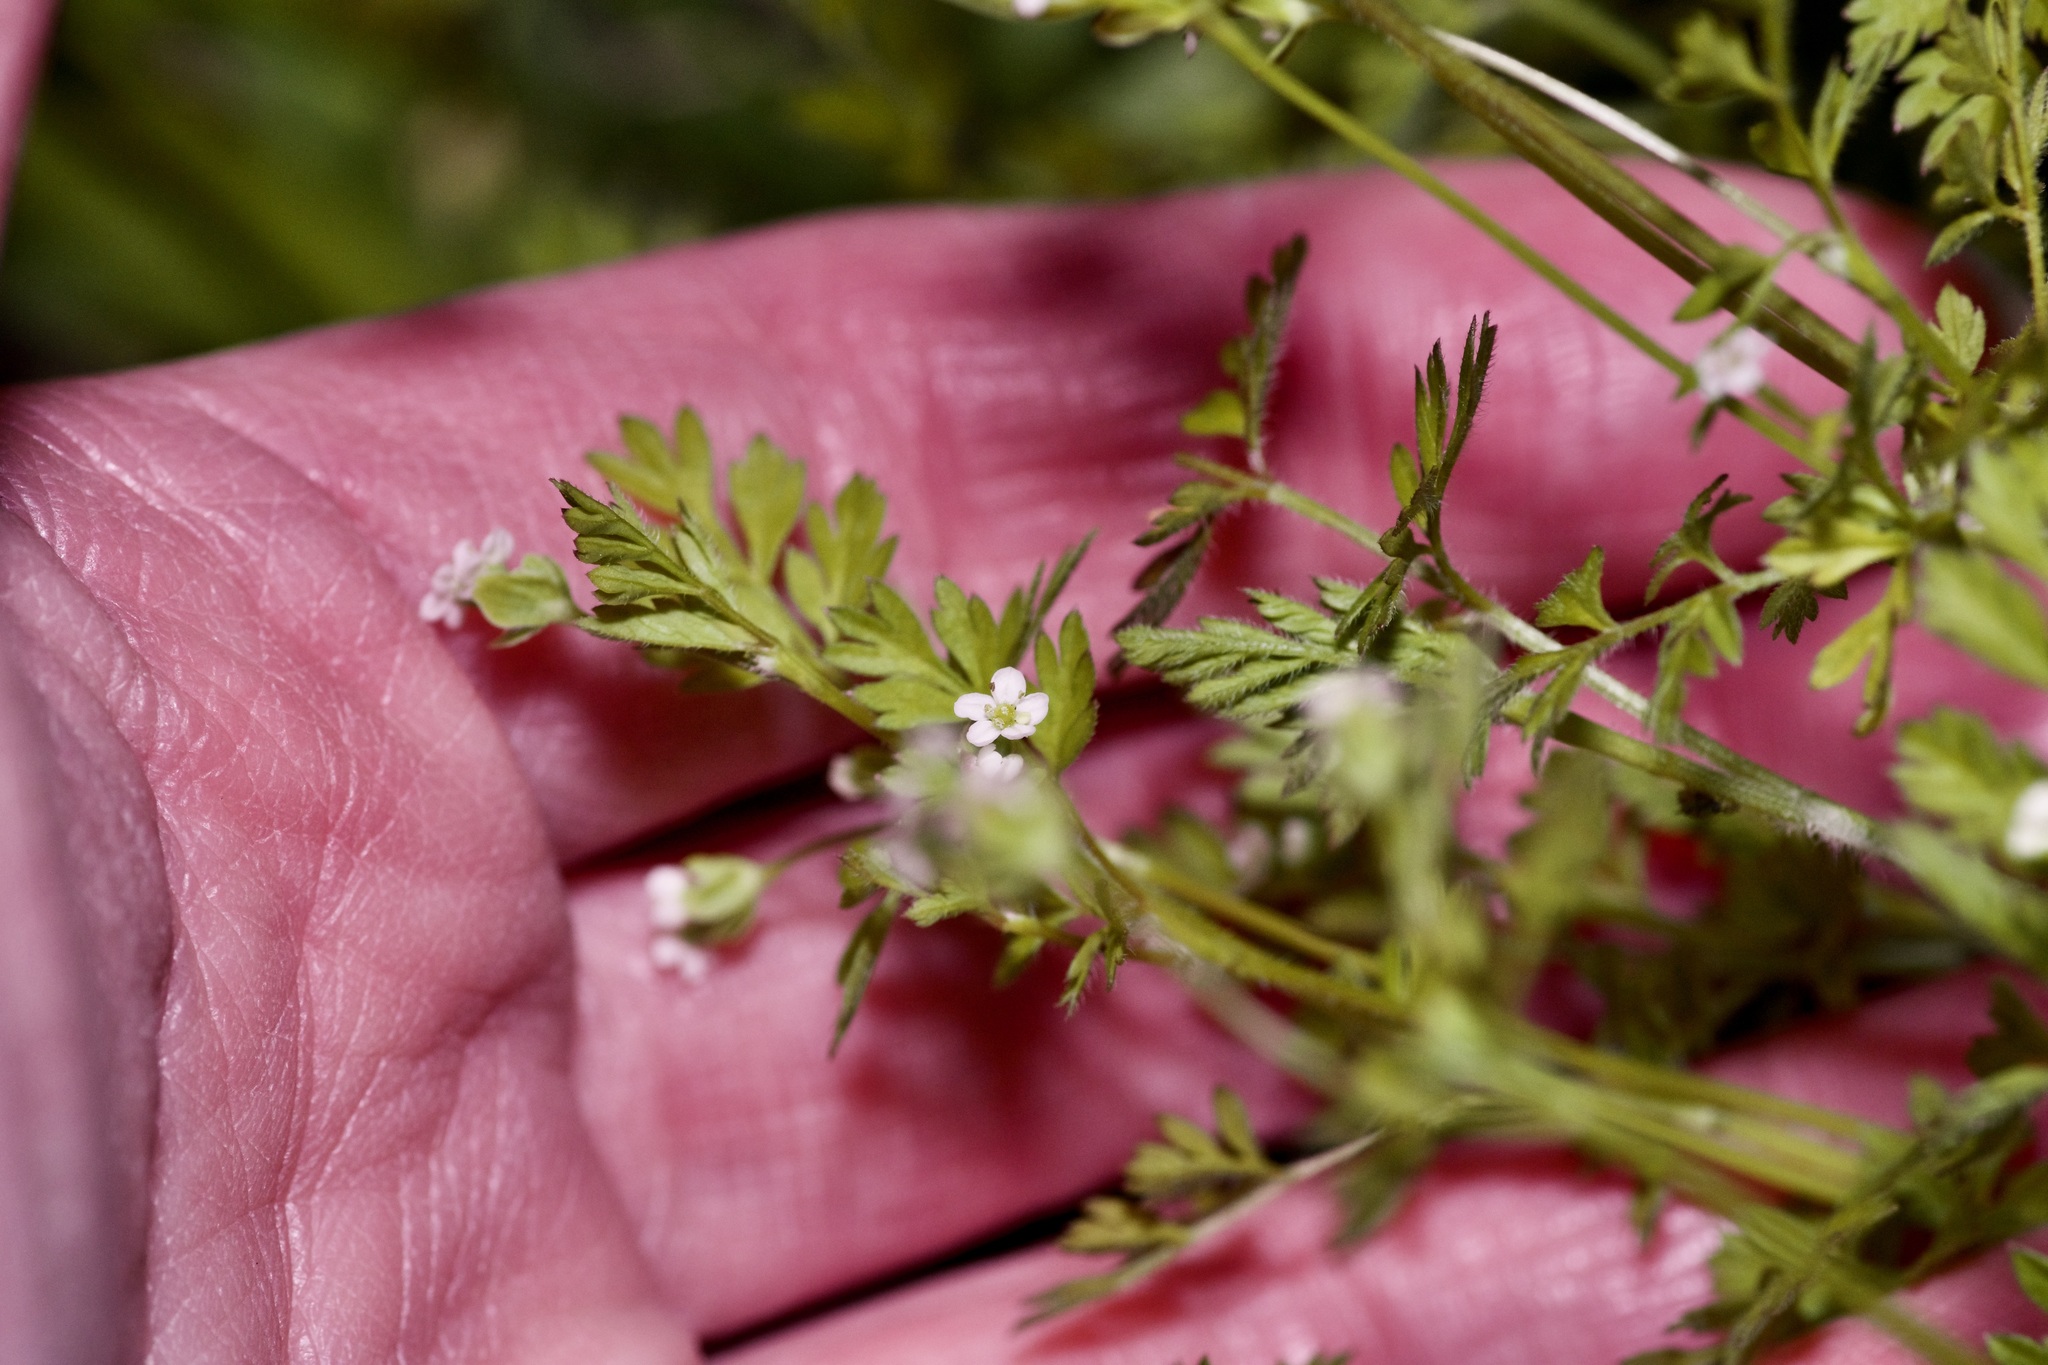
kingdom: Plantae
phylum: Tracheophyta
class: Magnoliopsida
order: Apiales
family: Apiaceae
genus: Chaerophyllum
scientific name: Chaerophyllum tainturieri
